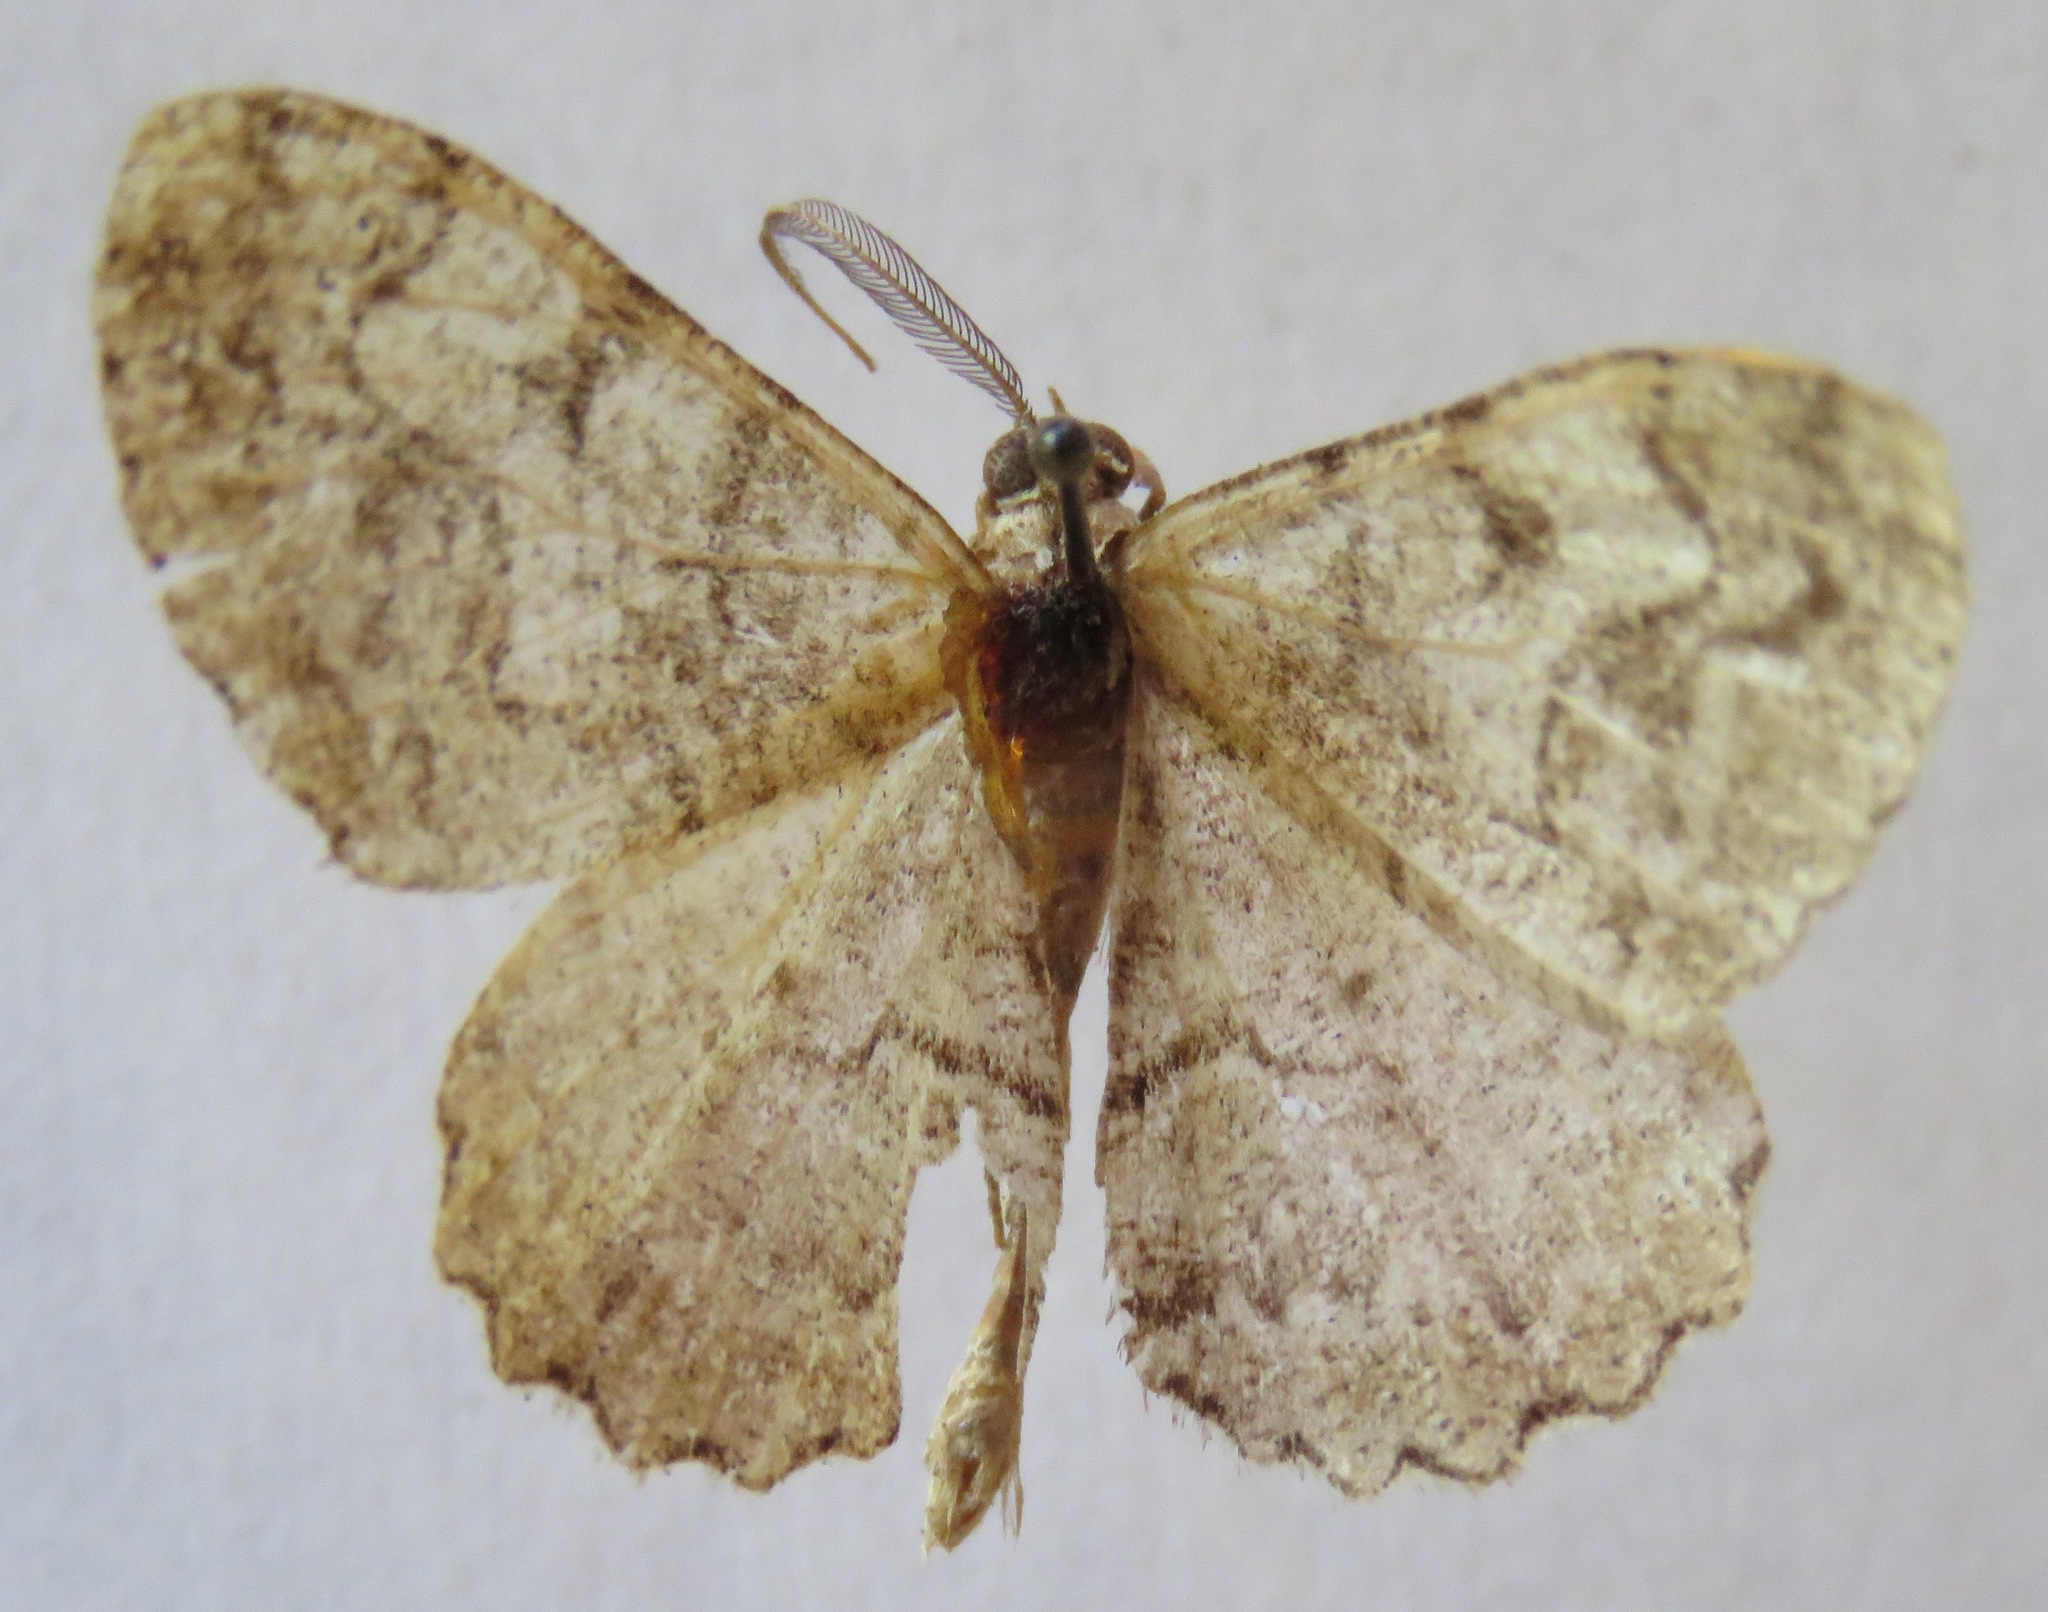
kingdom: Animalia
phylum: Arthropoda
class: Insecta
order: Lepidoptera
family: Geometridae
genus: Alcis
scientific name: Alcis repandata
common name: Mottled beauty
